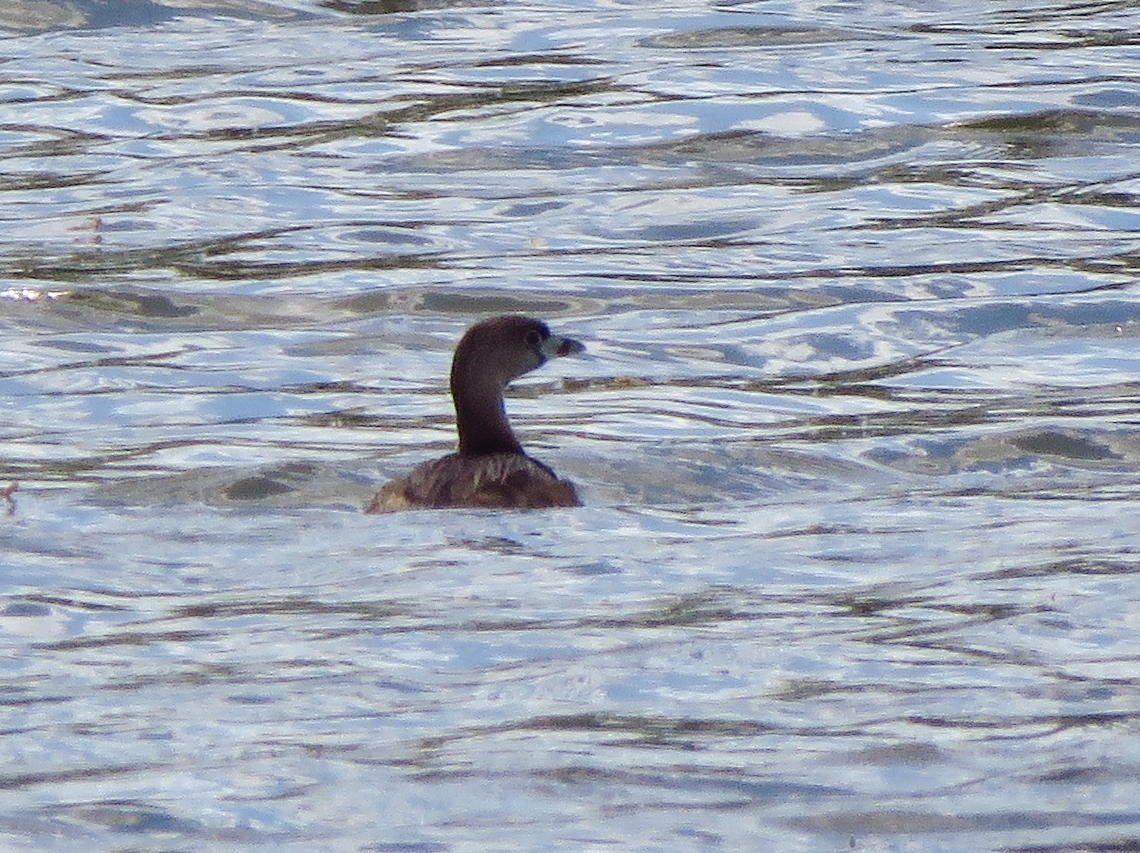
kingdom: Animalia
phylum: Chordata
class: Aves
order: Podicipediformes
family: Podicipedidae
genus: Podilymbus
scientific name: Podilymbus podiceps
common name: Pied-billed grebe
